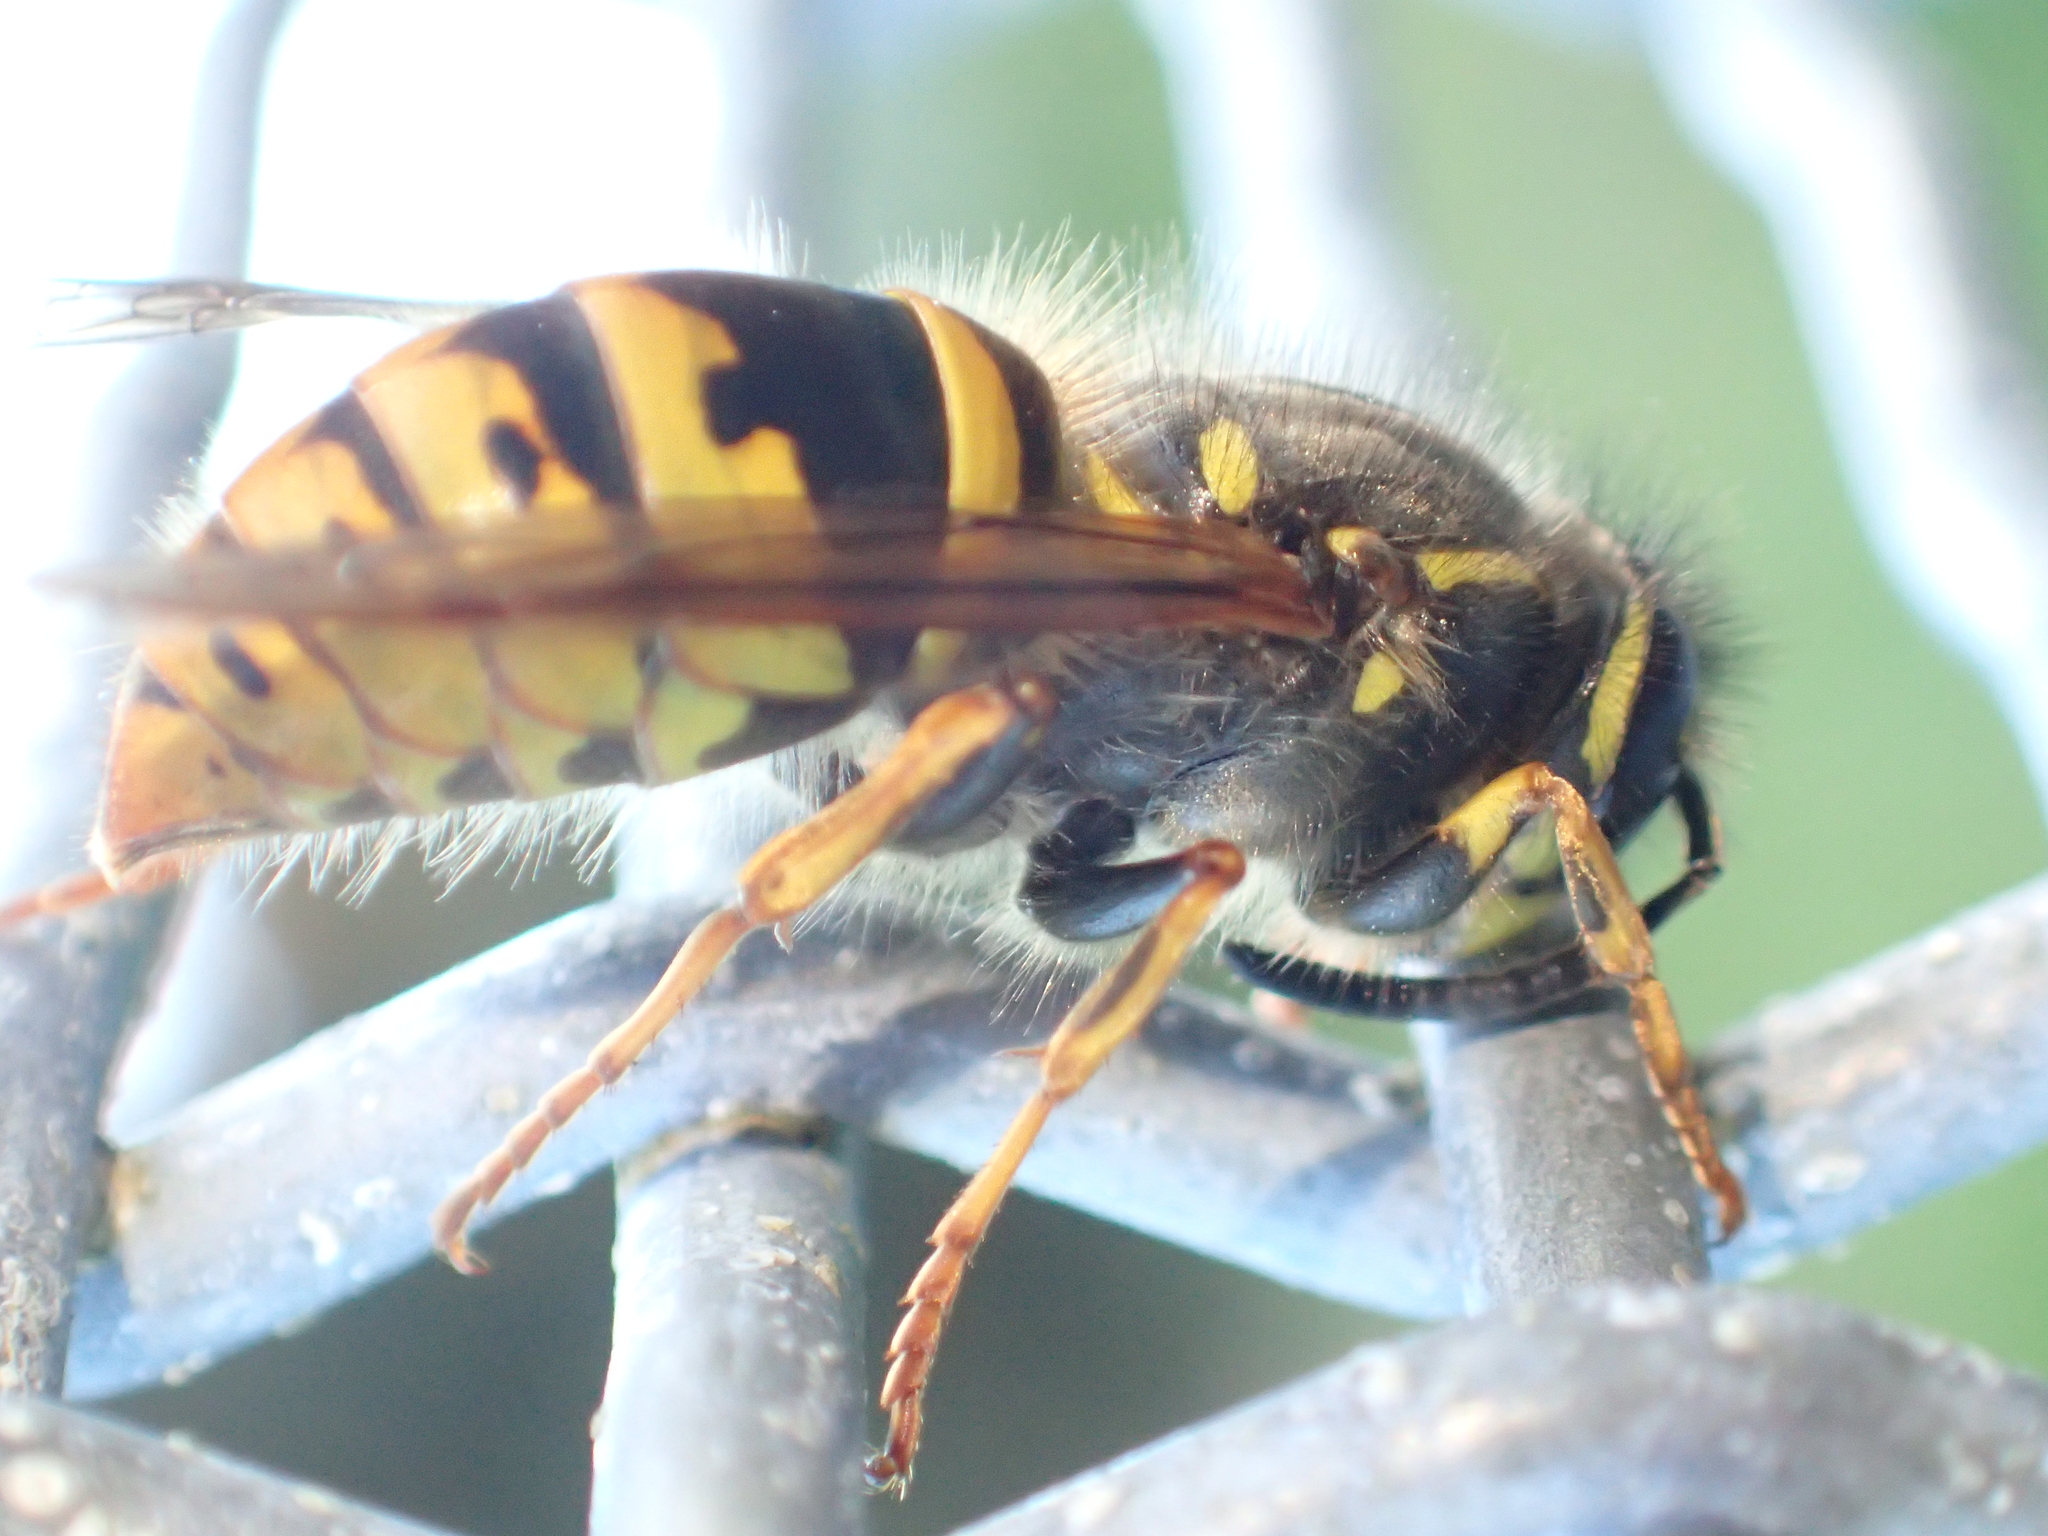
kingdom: Animalia
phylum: Arthropoda
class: Insecta
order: Hymenoptera
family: Vespidae
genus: Vespula
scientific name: Vespula vulgaris
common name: Common wasp
